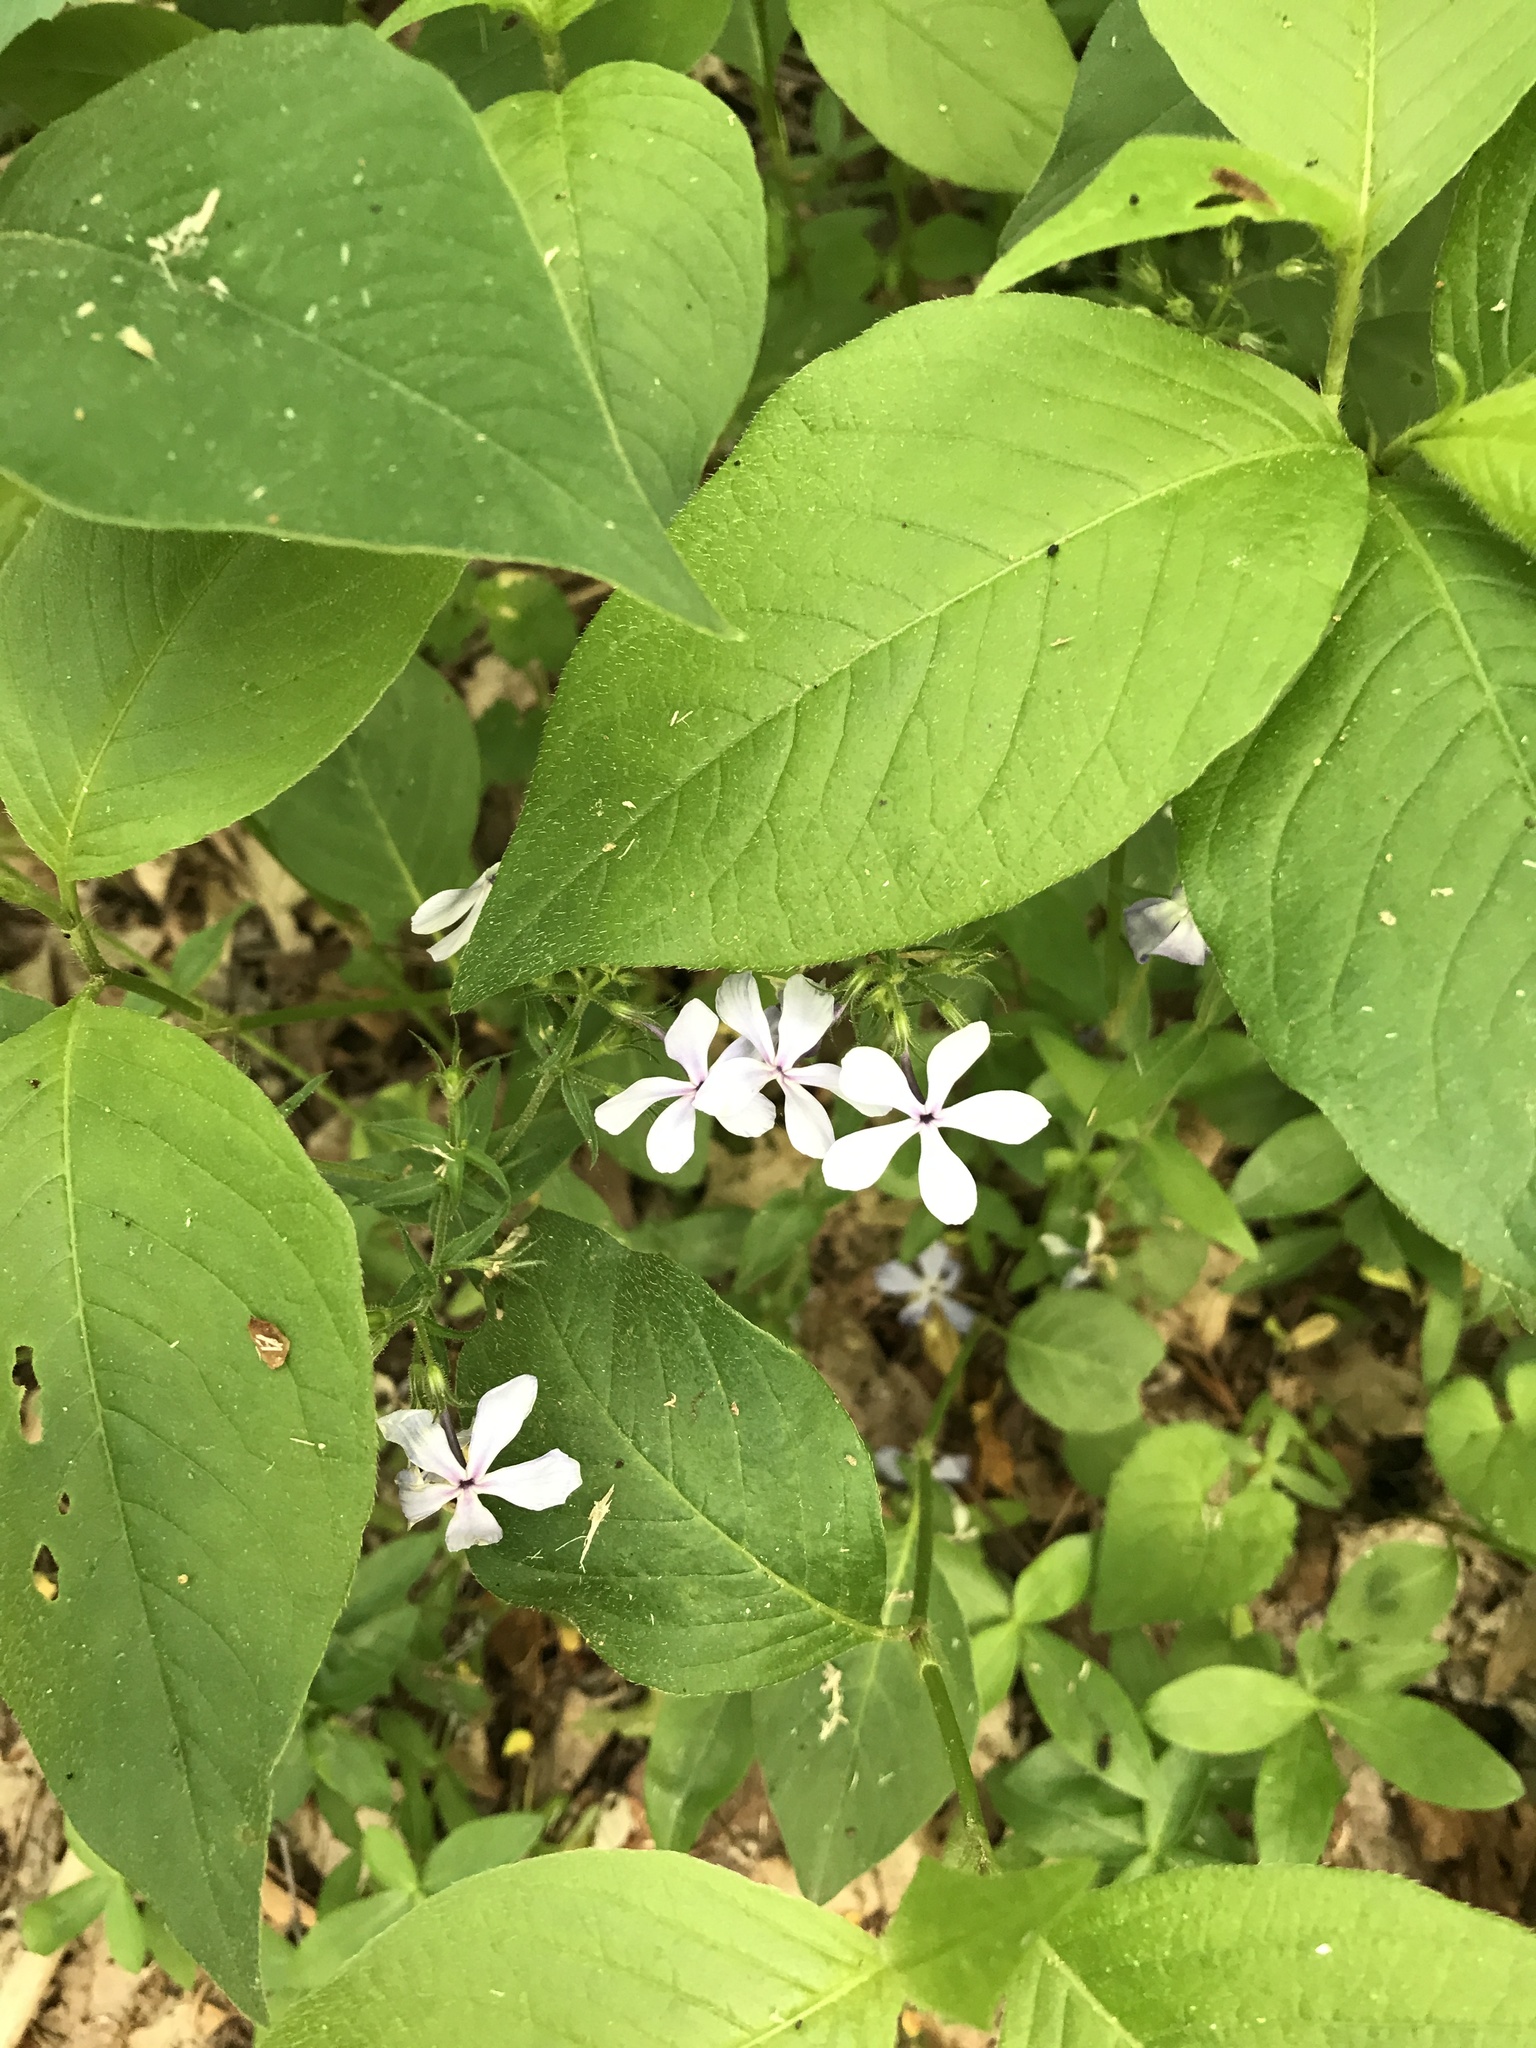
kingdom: Plantae
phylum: Tracheophyta
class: Magnoliopsida
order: Ericales
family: Polemoniaceae
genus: Phlox
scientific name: Phlox divaricata
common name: Blue phlox
